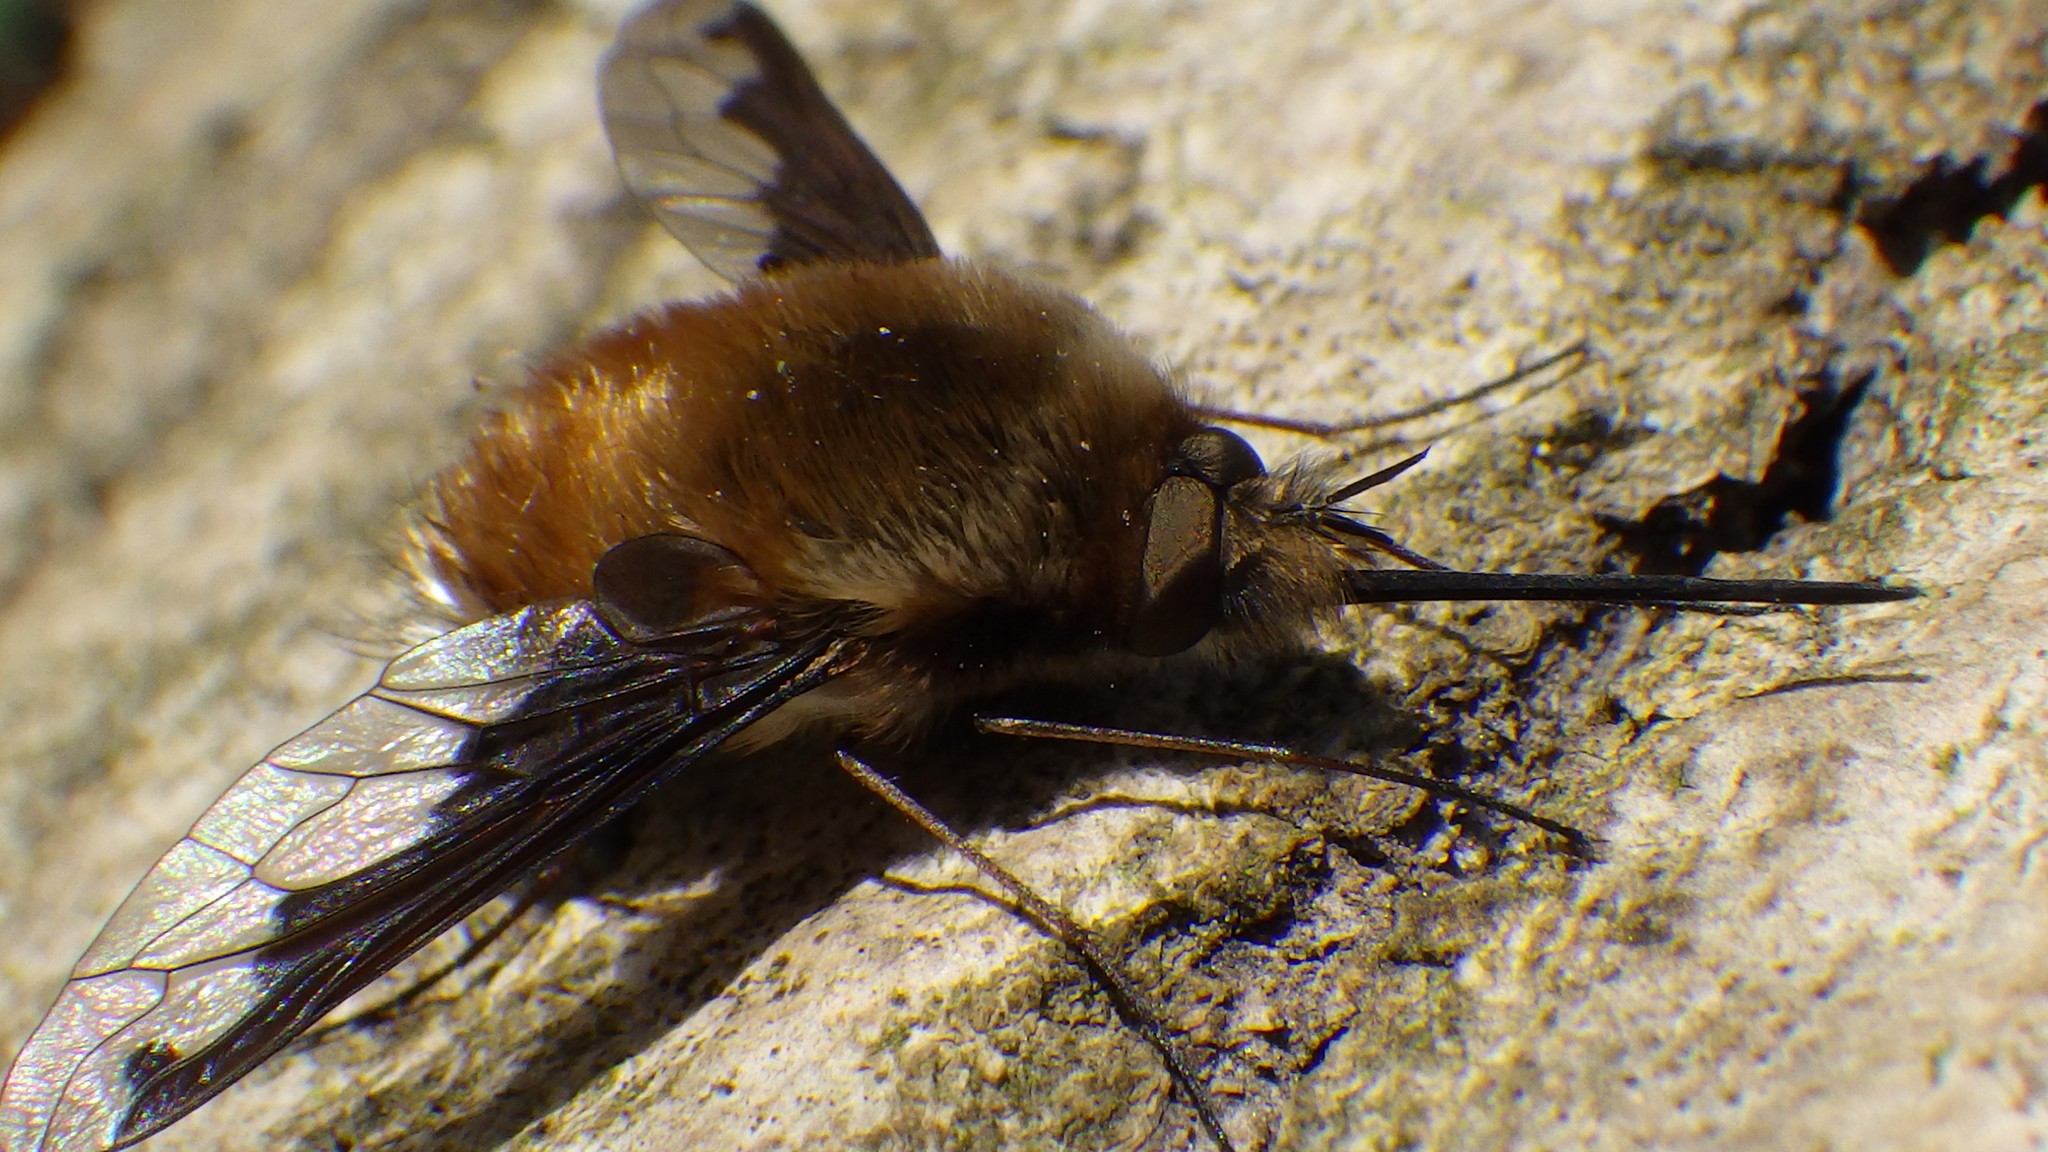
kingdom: Animalia
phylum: Arthropoda
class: Insecta
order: Diptera
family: Bombyliidae
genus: Bombylius
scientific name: Bombylius major
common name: Bee fly
